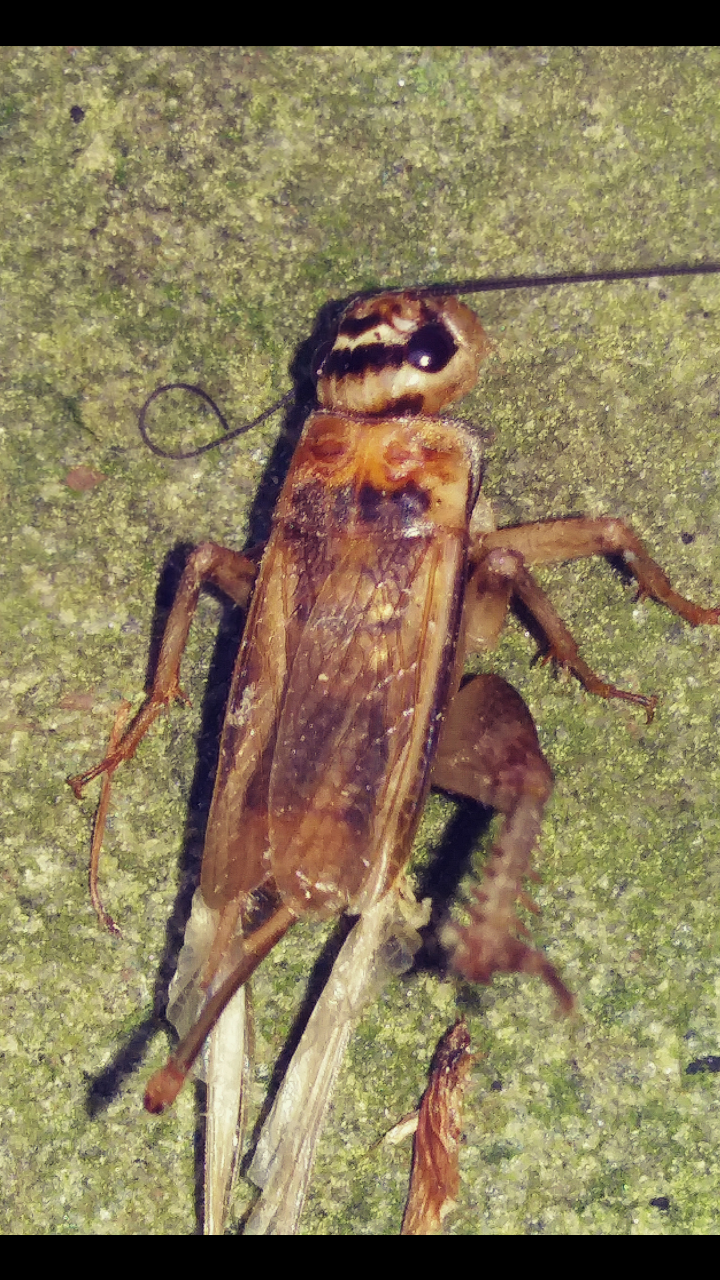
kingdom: Animalia
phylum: Arthropoda
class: Insecta
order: Orthoptera
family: Gryllidae
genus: Acheta
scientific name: Acheta domesticus
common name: House cricket
